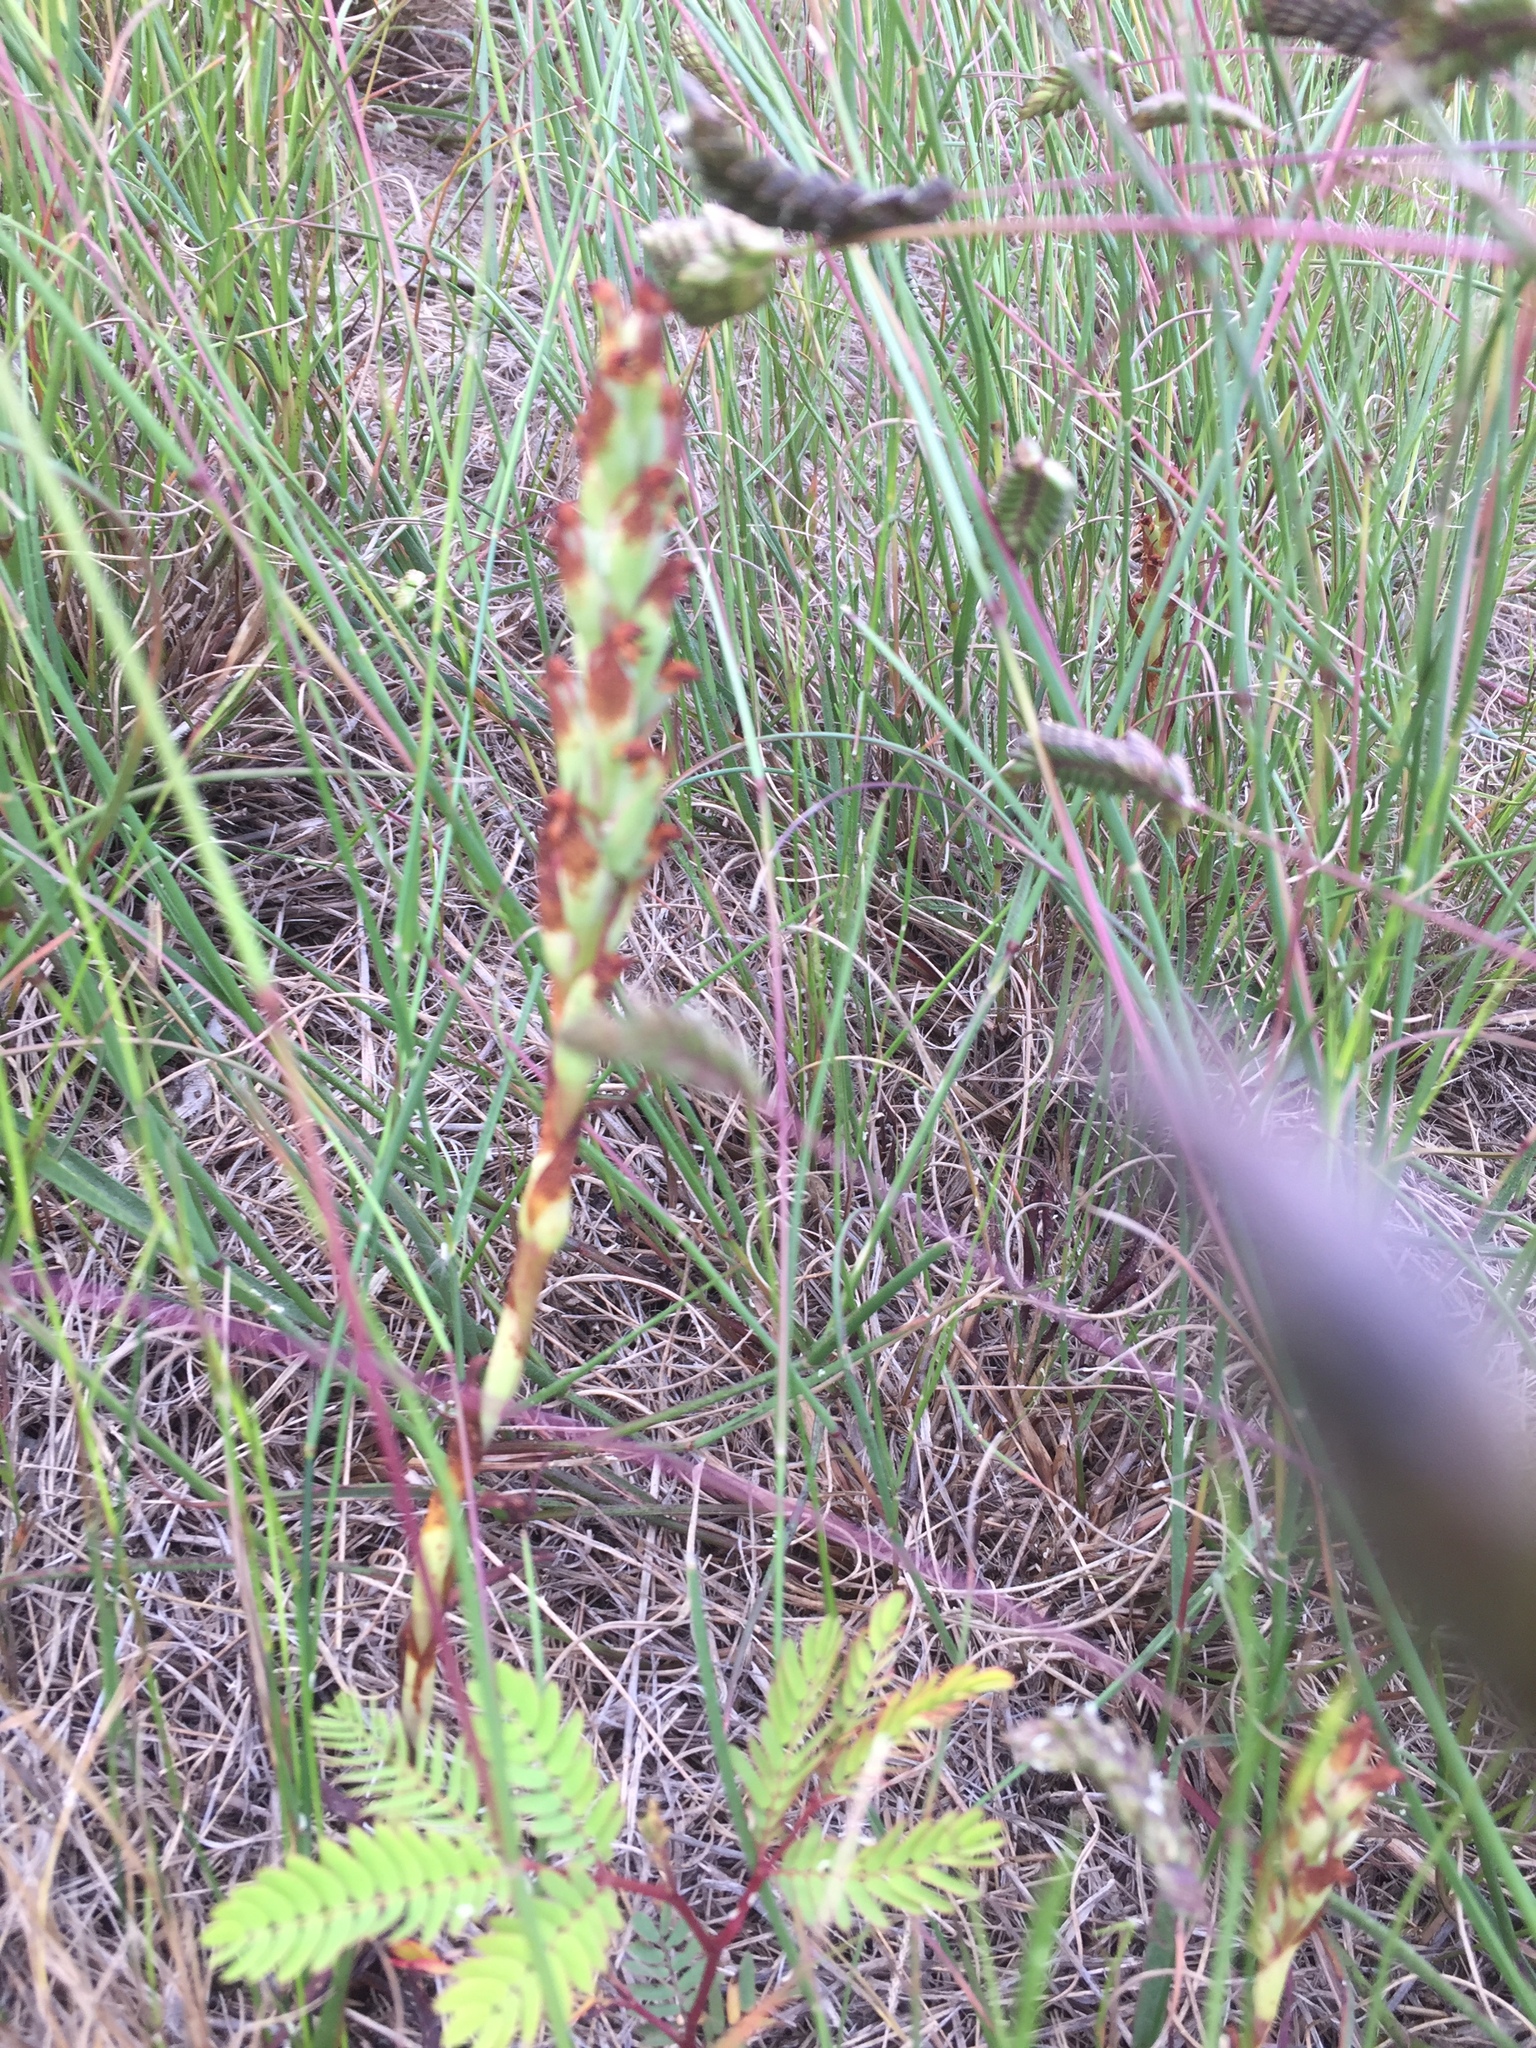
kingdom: Plantae
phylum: Tracheophyta
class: Liliopsida
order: Asparagales
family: Orchidaceae
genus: Disa
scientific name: Disa bracteata
